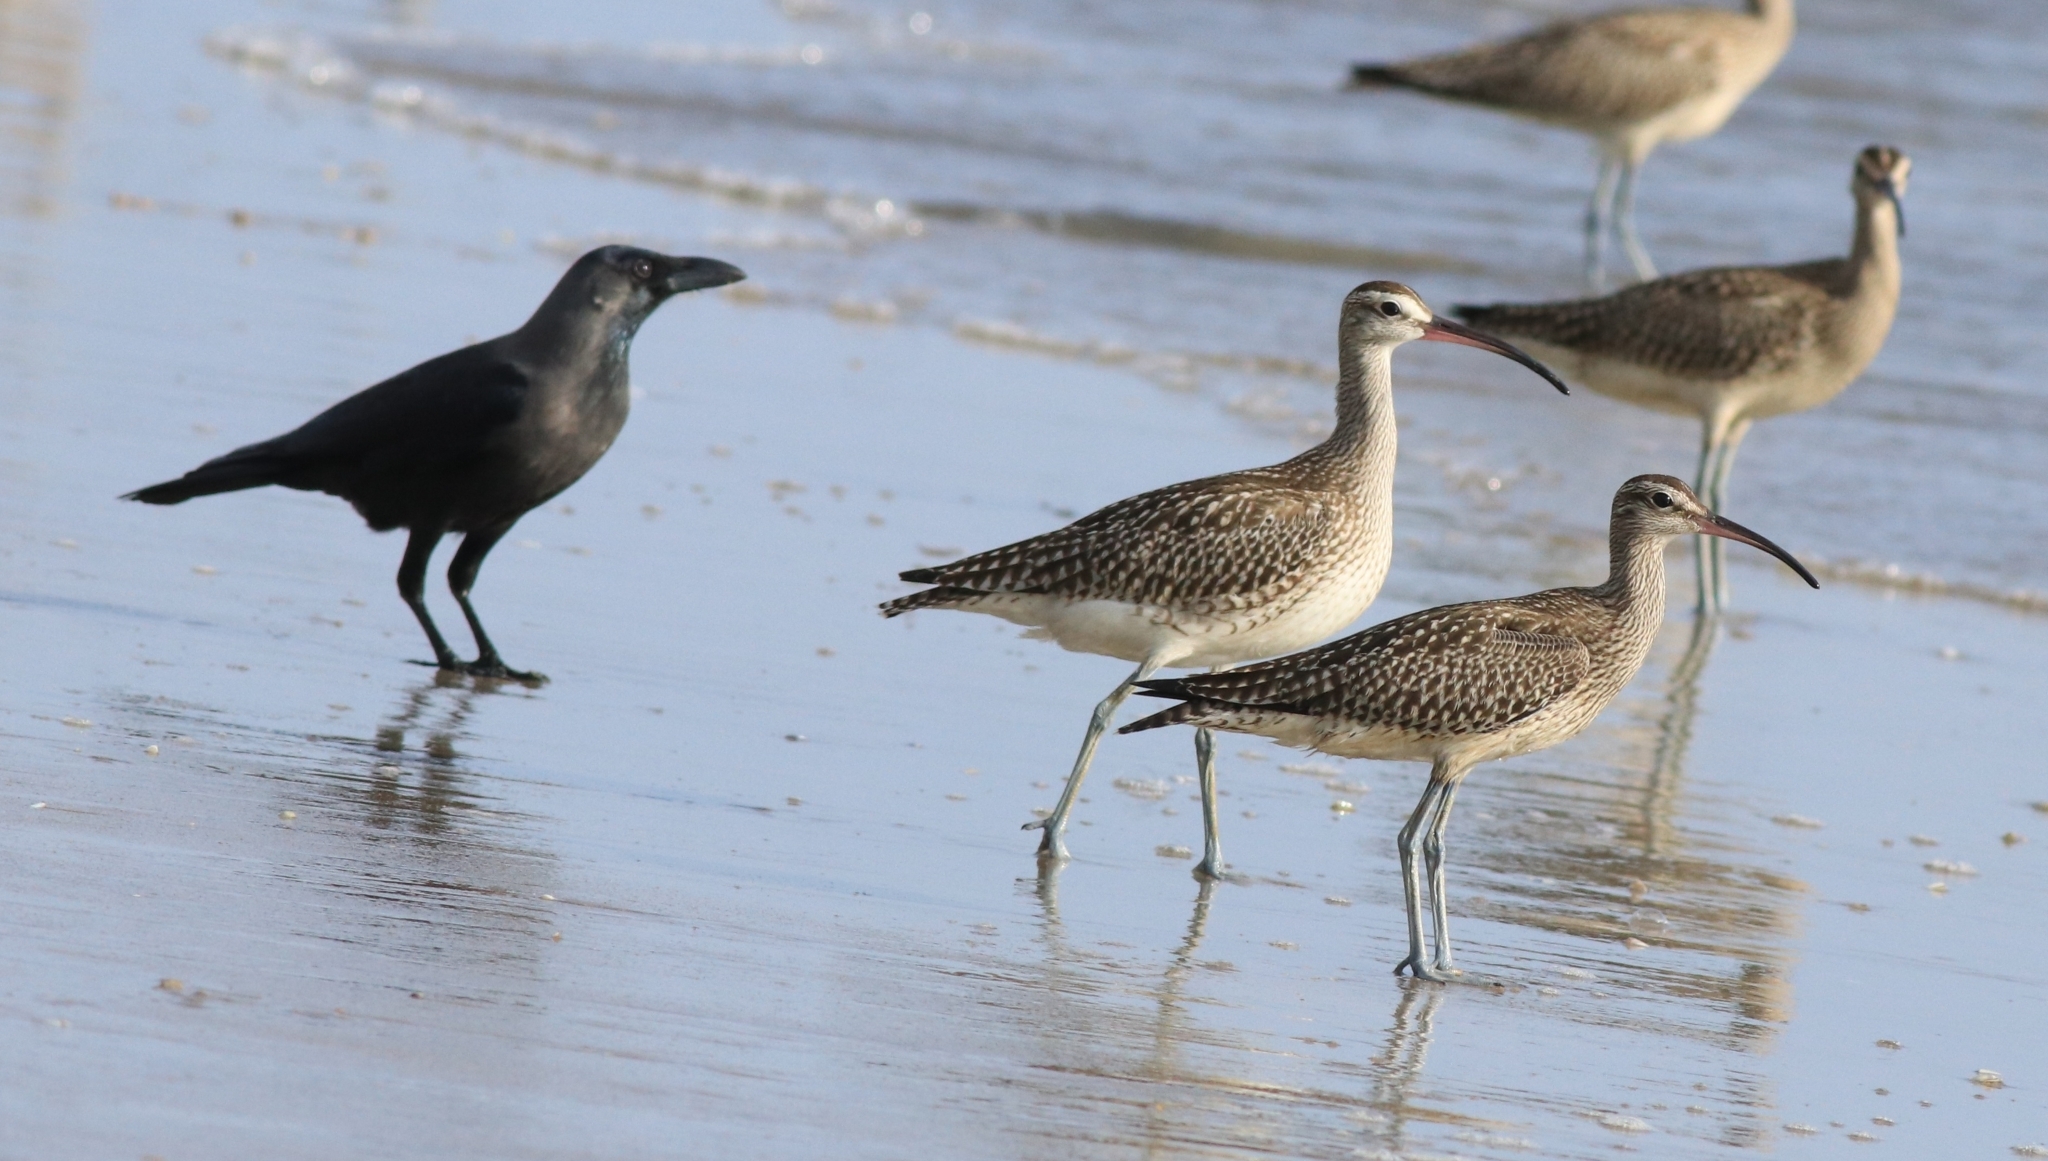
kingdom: Animalia
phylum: Chordata
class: Aves
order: Charadriiformes
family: Scolopacidae
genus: Numenius
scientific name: Numenius phaeopus
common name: Whimbrel
